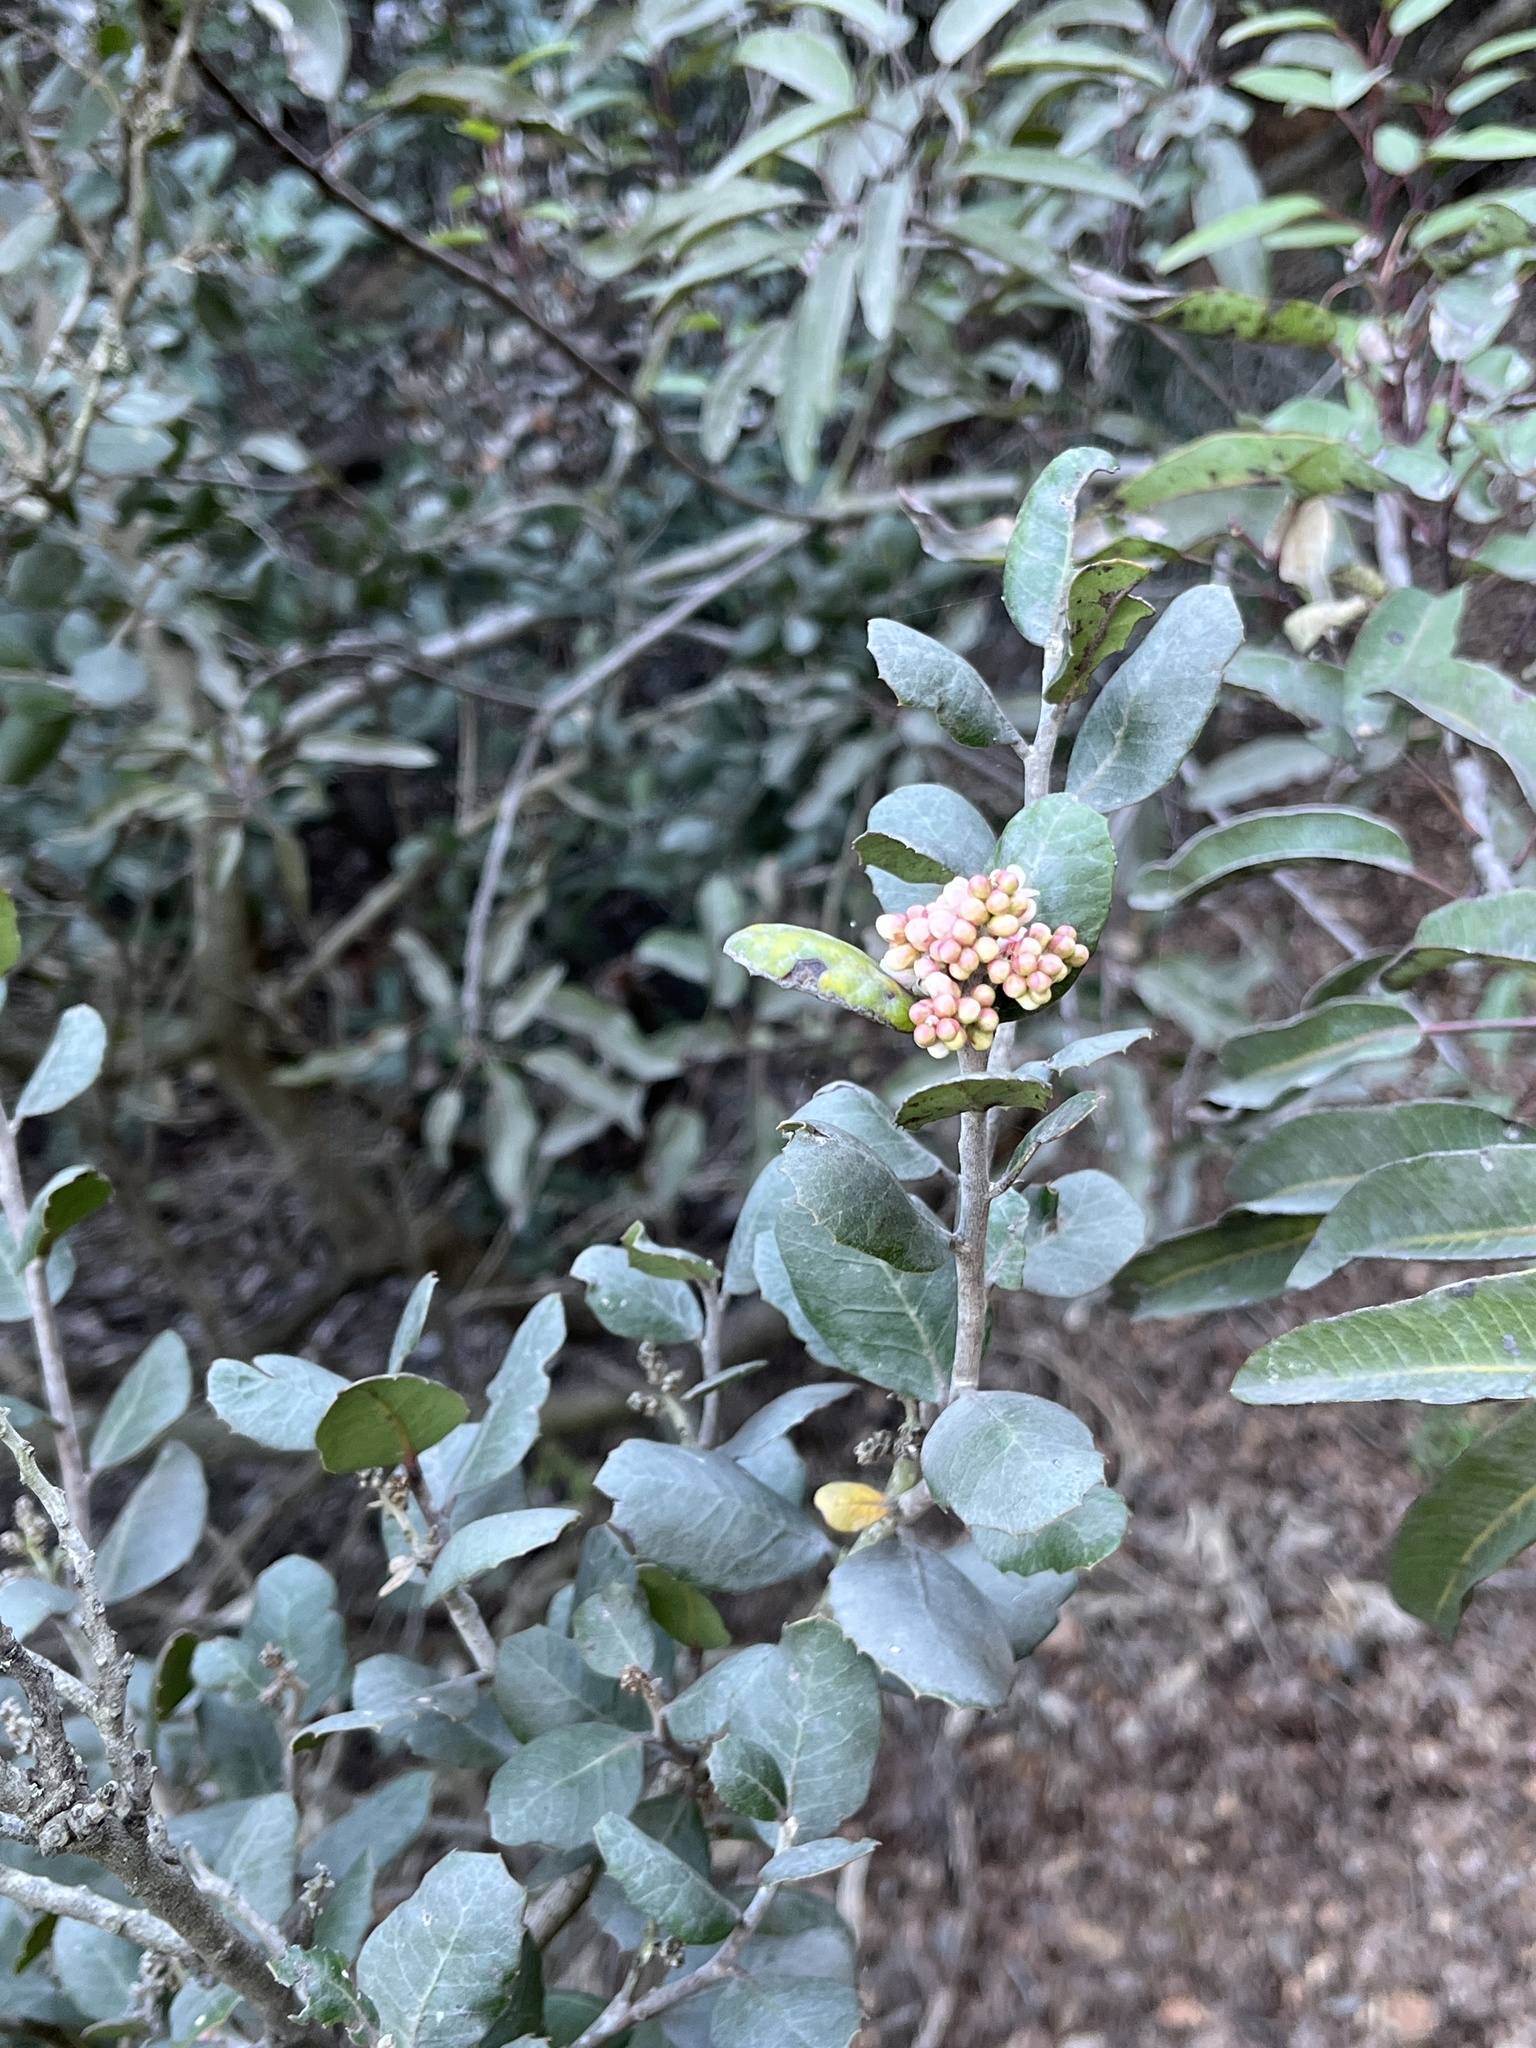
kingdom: Plantae
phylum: Tracheophyta
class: Magnoliopsida
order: Sapindales
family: Anacardiaceae
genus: Rhus
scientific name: Rhus integrifolia
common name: Lemonade sumac
